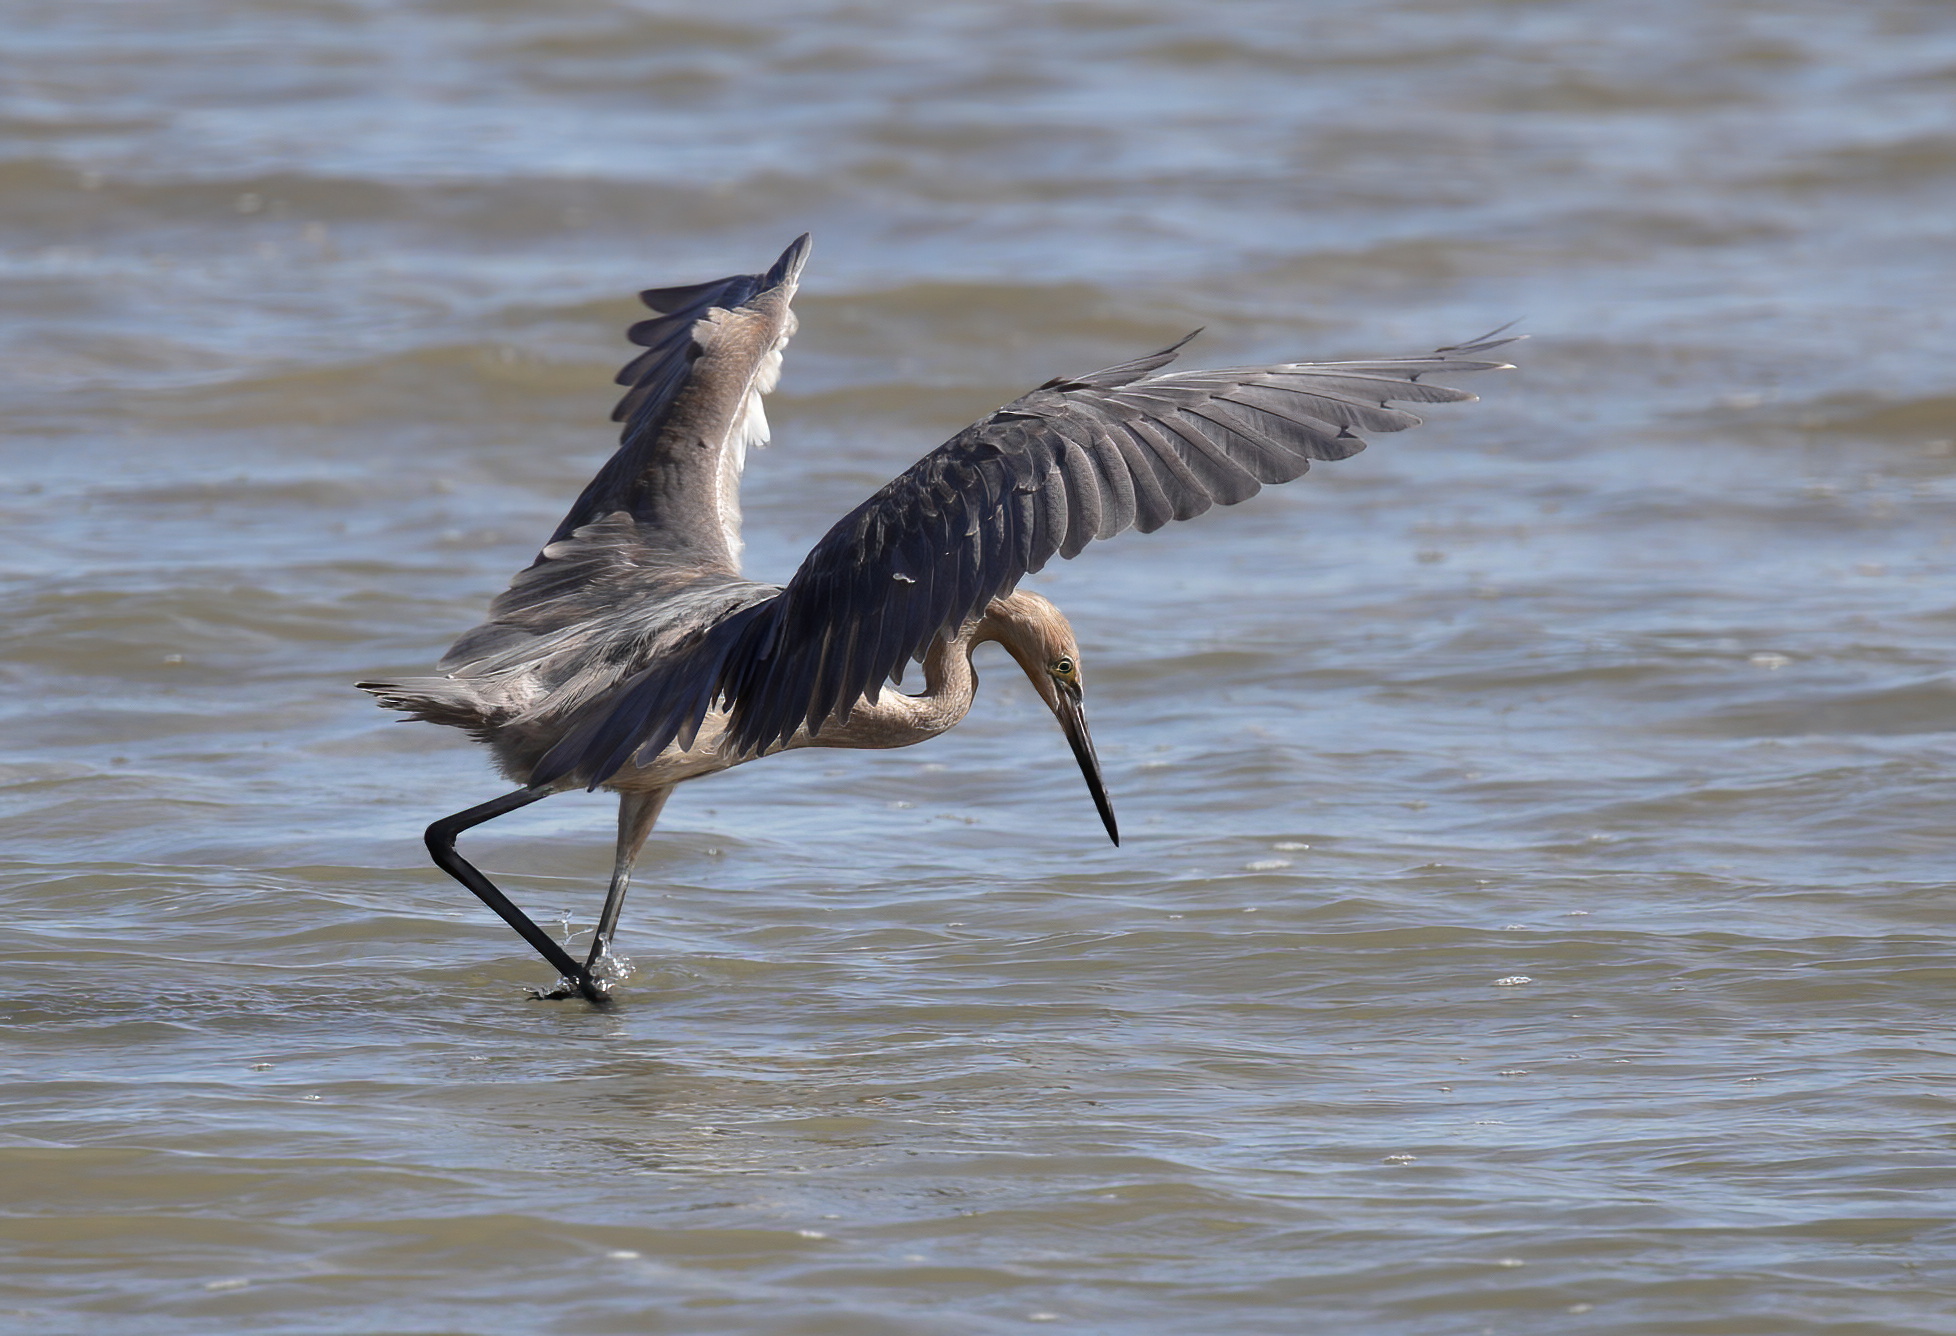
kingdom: Animalia
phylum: Chordata
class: Aves
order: Pelecaniformes
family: Ardeidae
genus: Egretta
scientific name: Egretta rufescens
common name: Reddish egret
